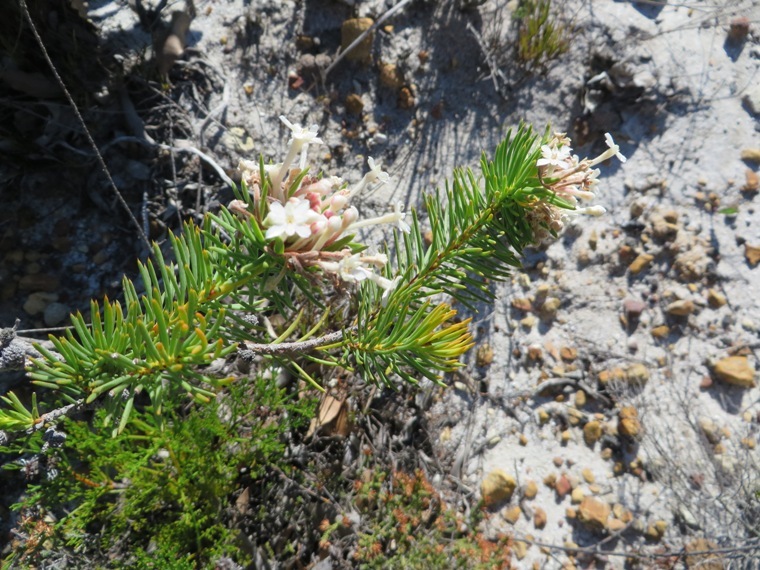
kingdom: Plantae
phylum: Tracheophyta
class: Magnoliopsida
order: Malvales
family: Thymelaeaceae
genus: Gnidia
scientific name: Gnidia pinifolia
